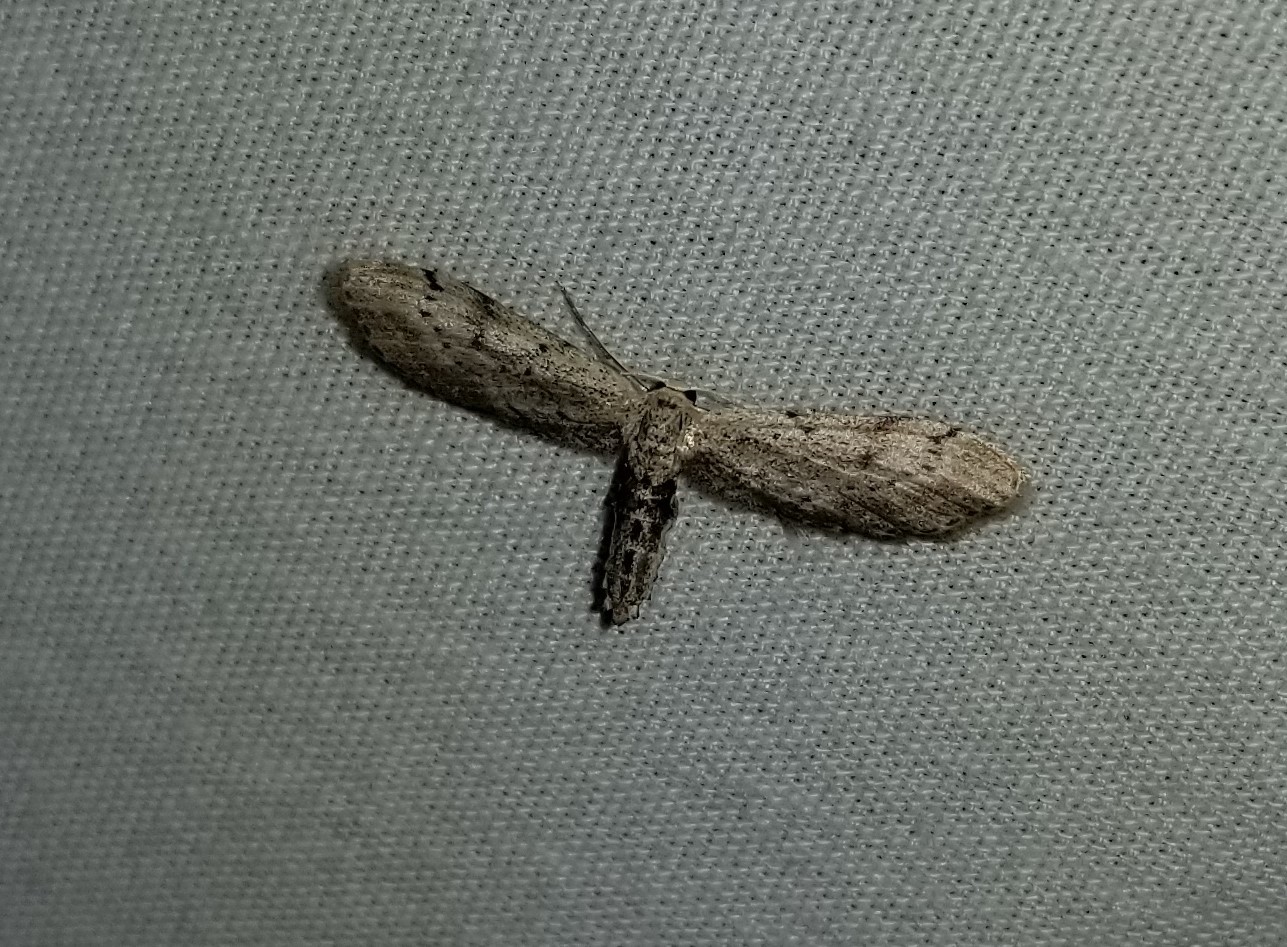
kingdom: Animalia
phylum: Arthropoda
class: Insecta
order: Lepidoptera
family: Geometridae
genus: Eumacrodes
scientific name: Eumacrodes yponomeutaria
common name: Slender geometrid moth
